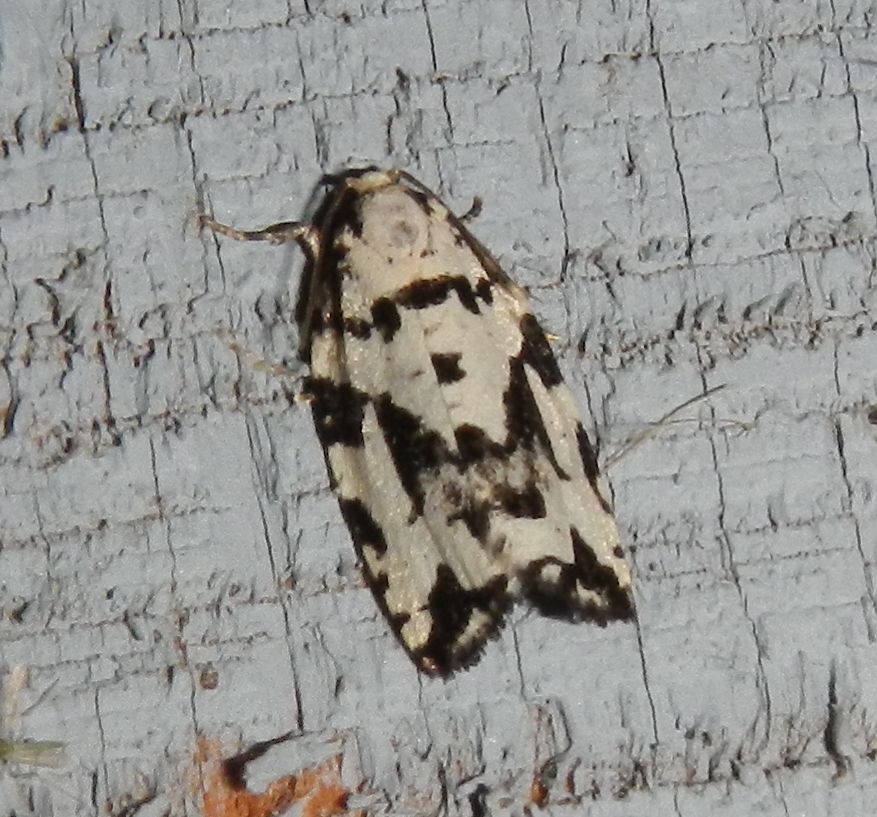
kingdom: Animalia
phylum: Arthropoda
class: Insecta
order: Lepidoptera
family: Tortricidae
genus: Archips
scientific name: Archips dissitana
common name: Boldly-marked archips moth
